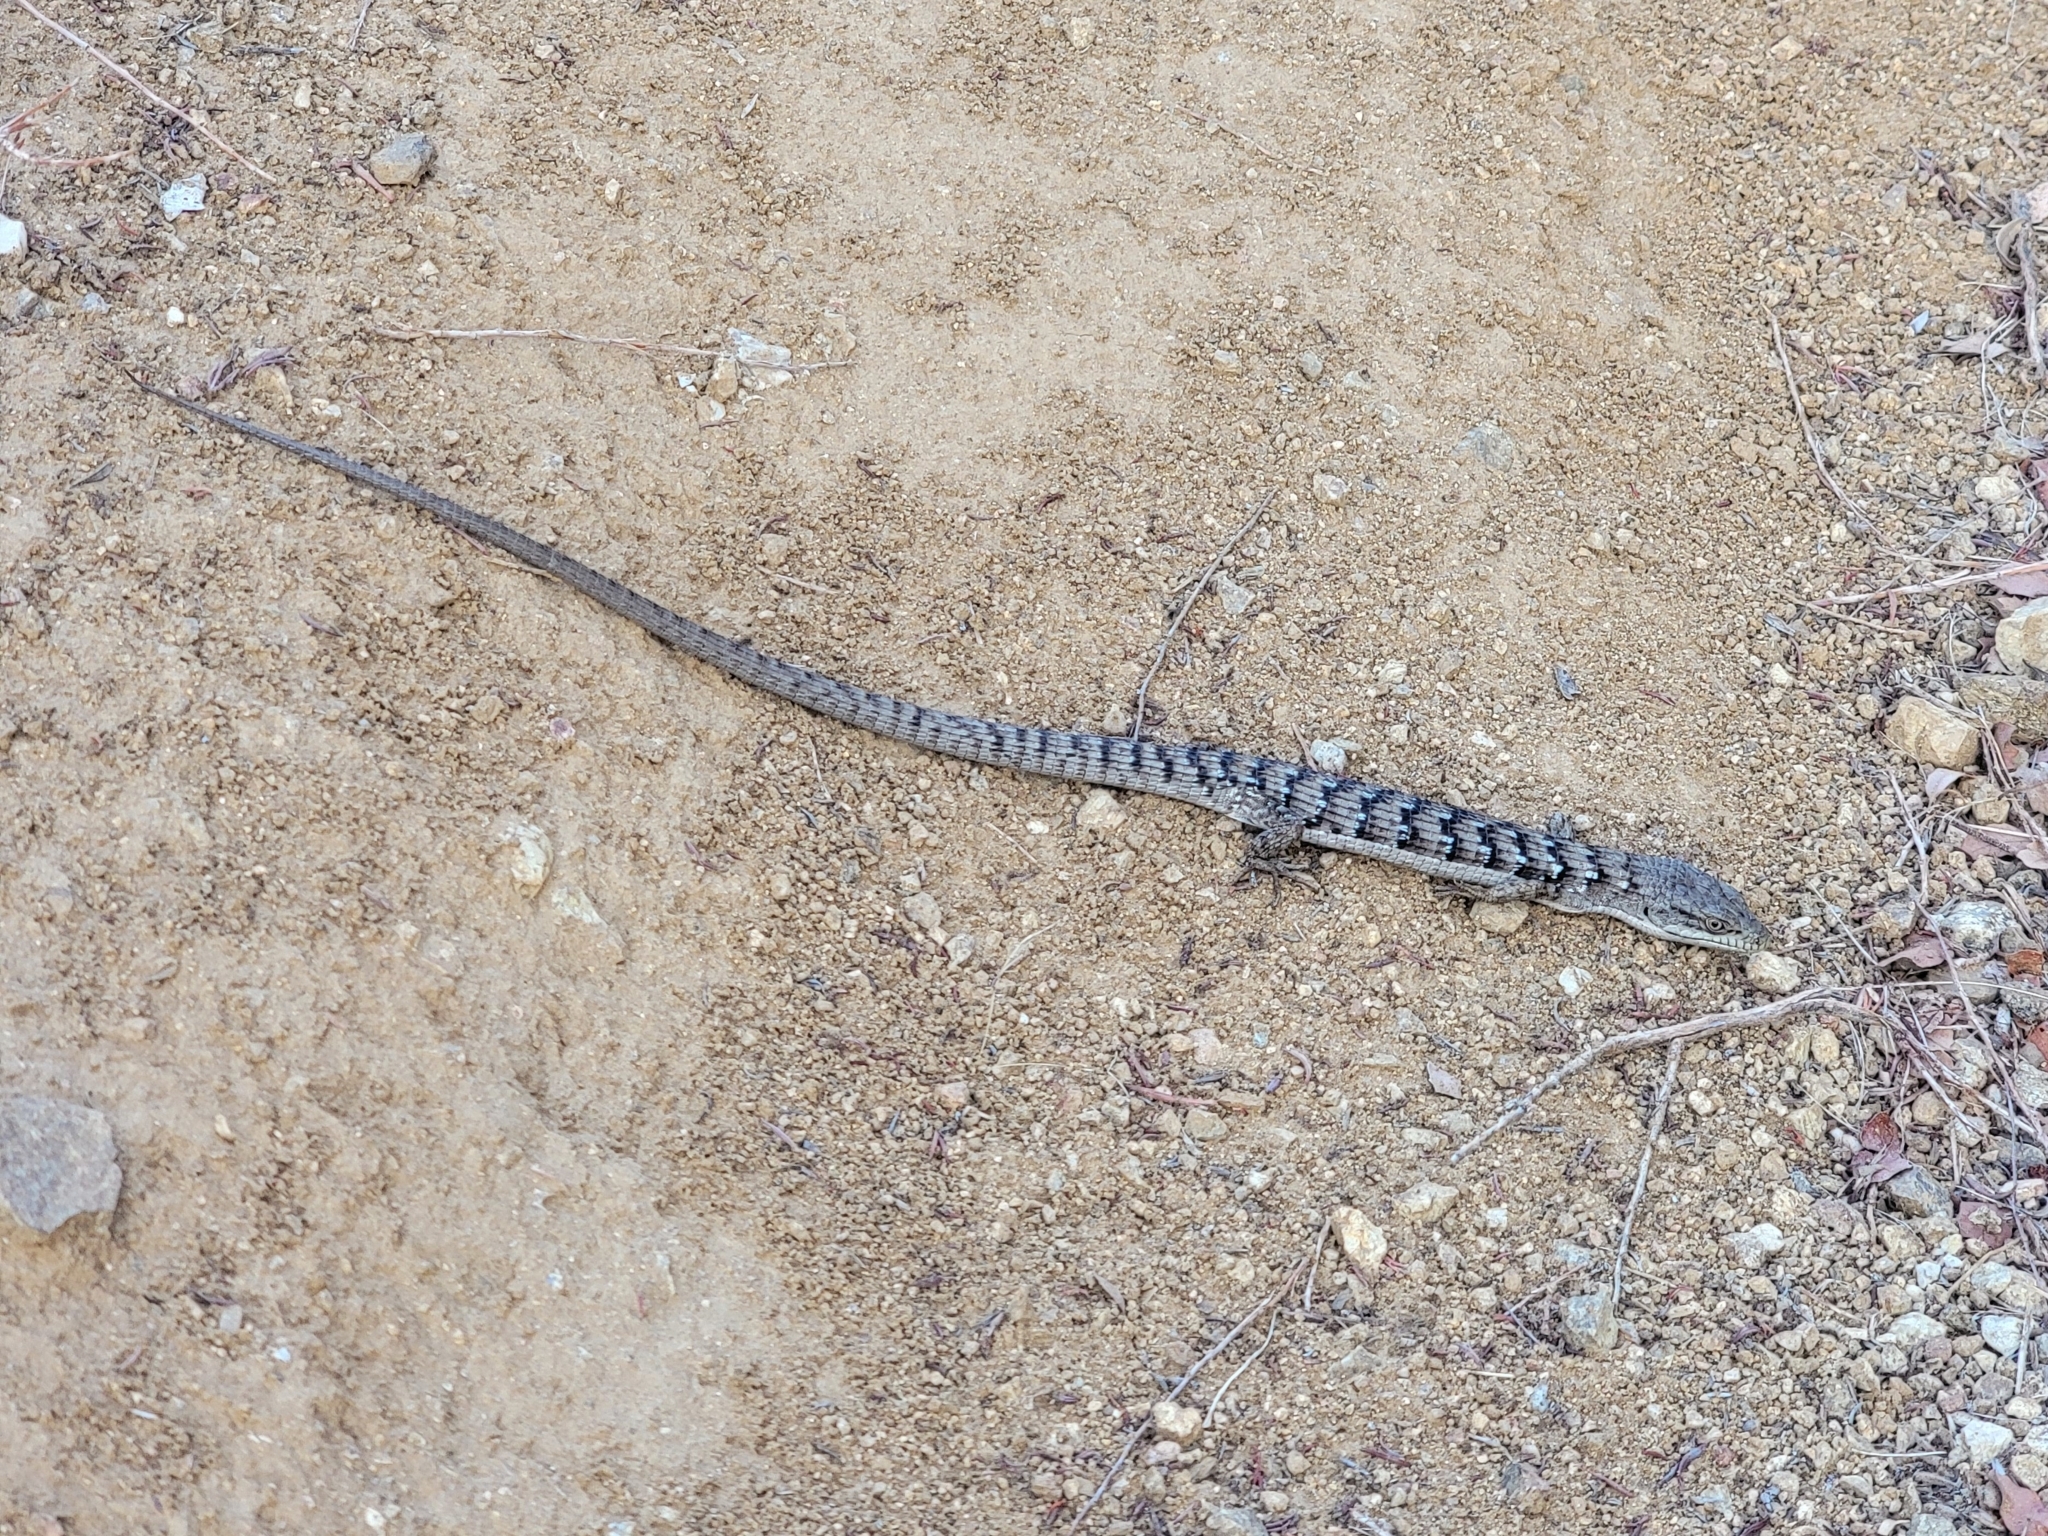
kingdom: Animalia
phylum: Chordata
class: Squamata
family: Anguidae
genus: Elgaria
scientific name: Elgaria multicarinata
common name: Southern alligator lizard
